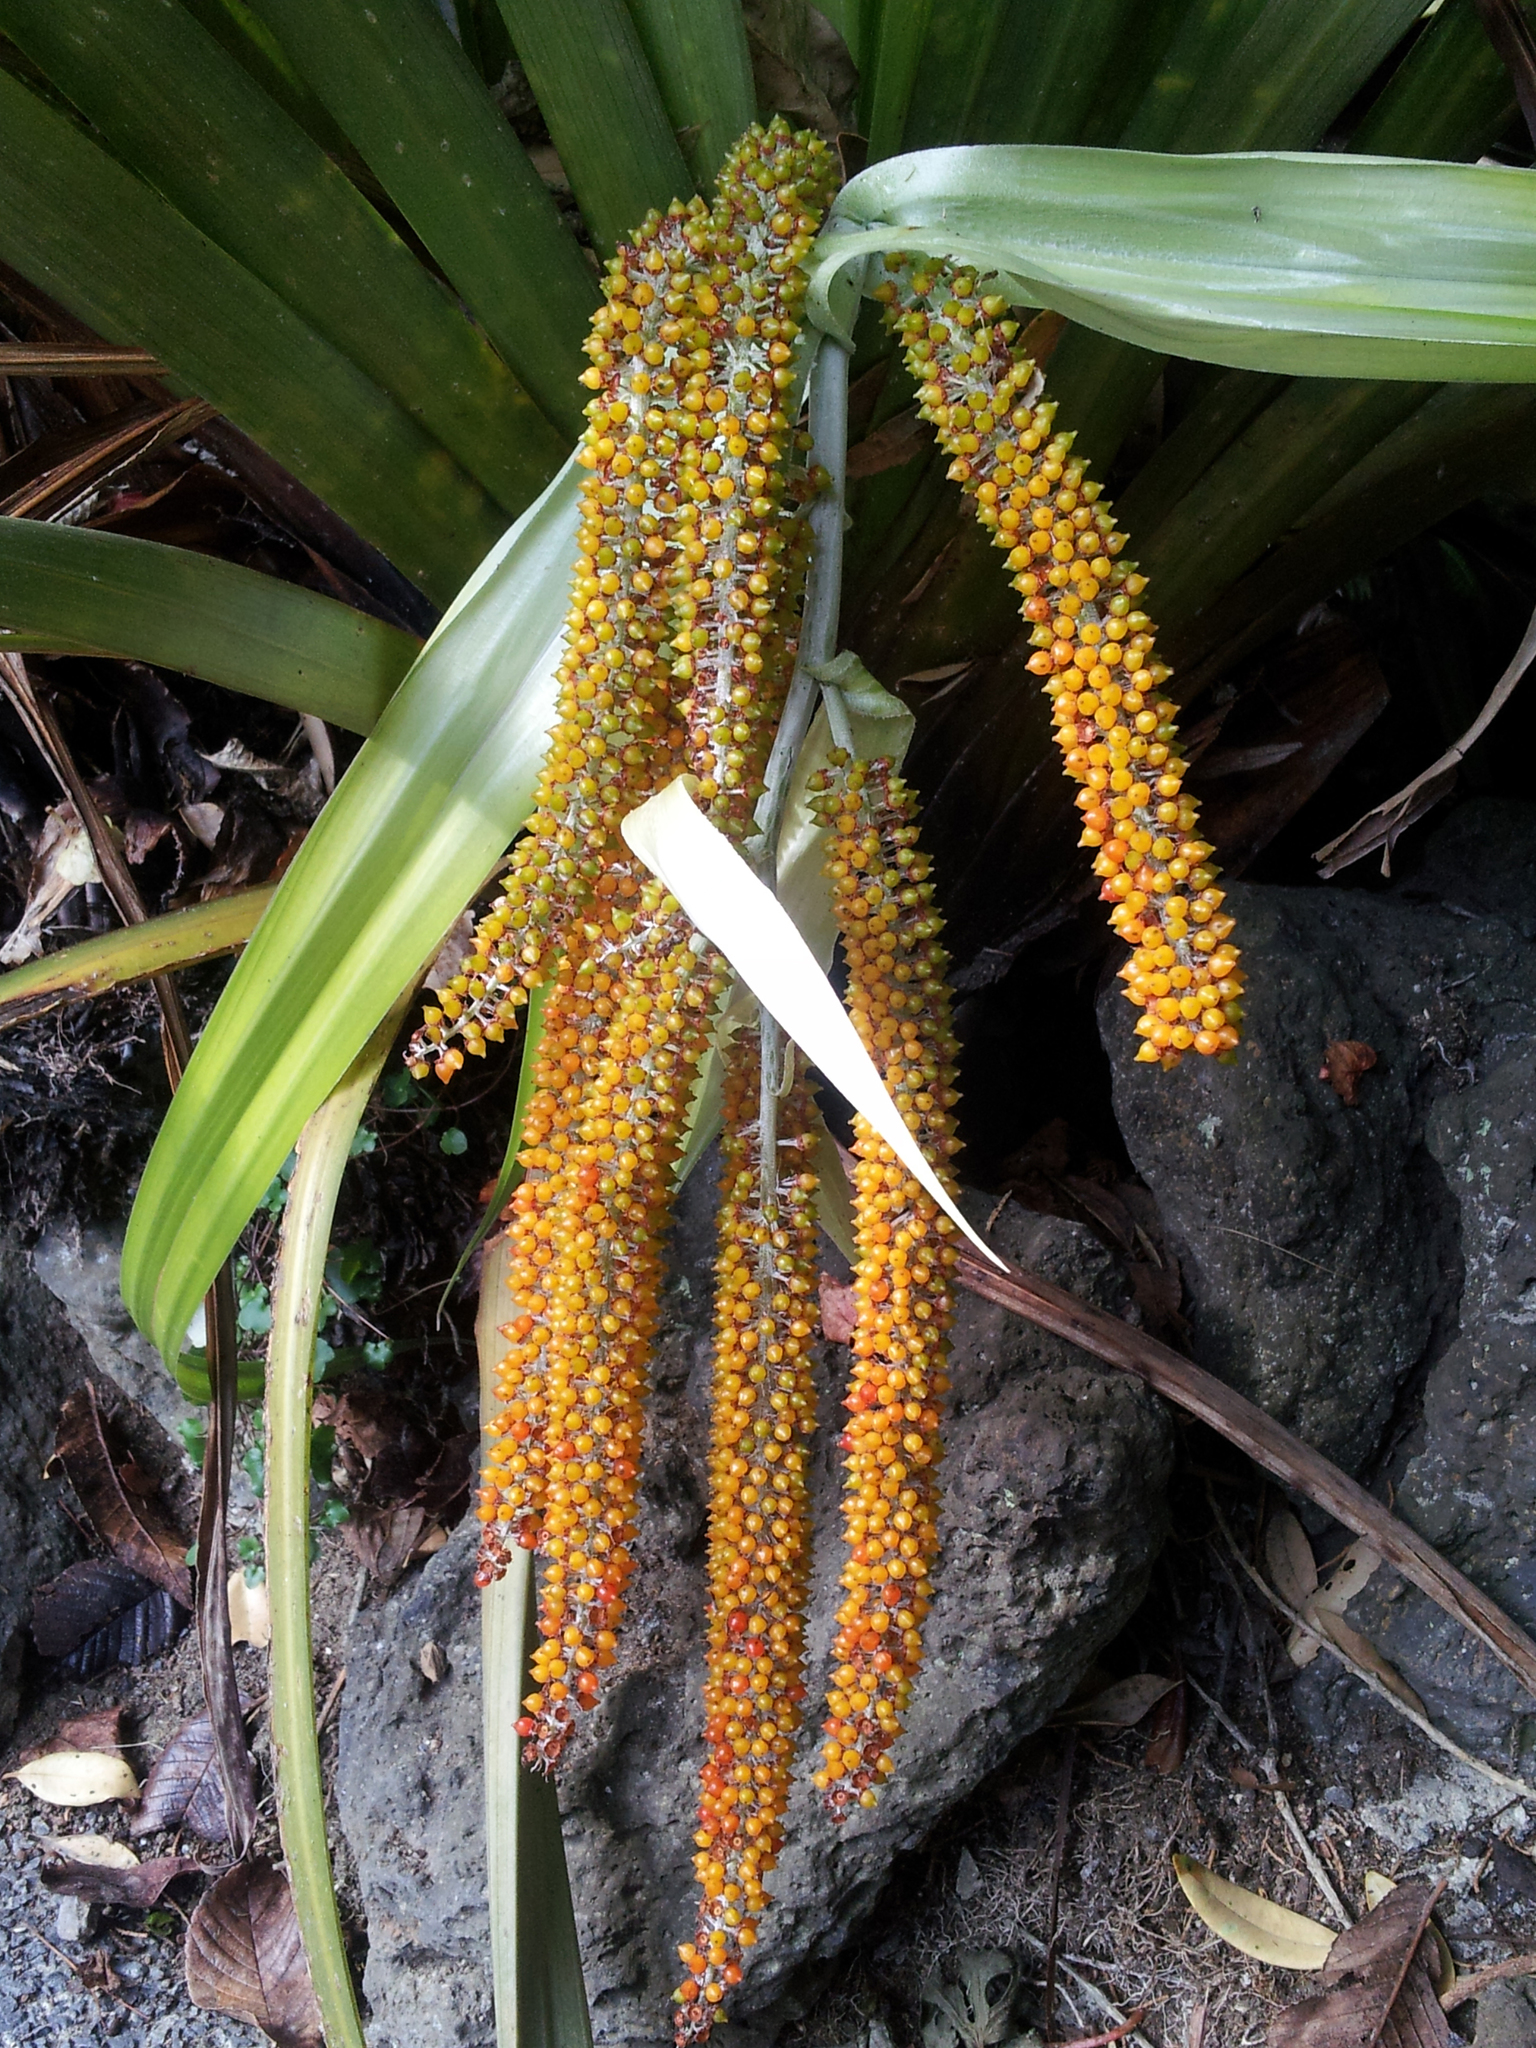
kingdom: Plantae
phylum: Tracheophyta
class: Liliopsida
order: Asparagales
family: Asteliaceae
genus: Astelia
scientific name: Astelia hastata
